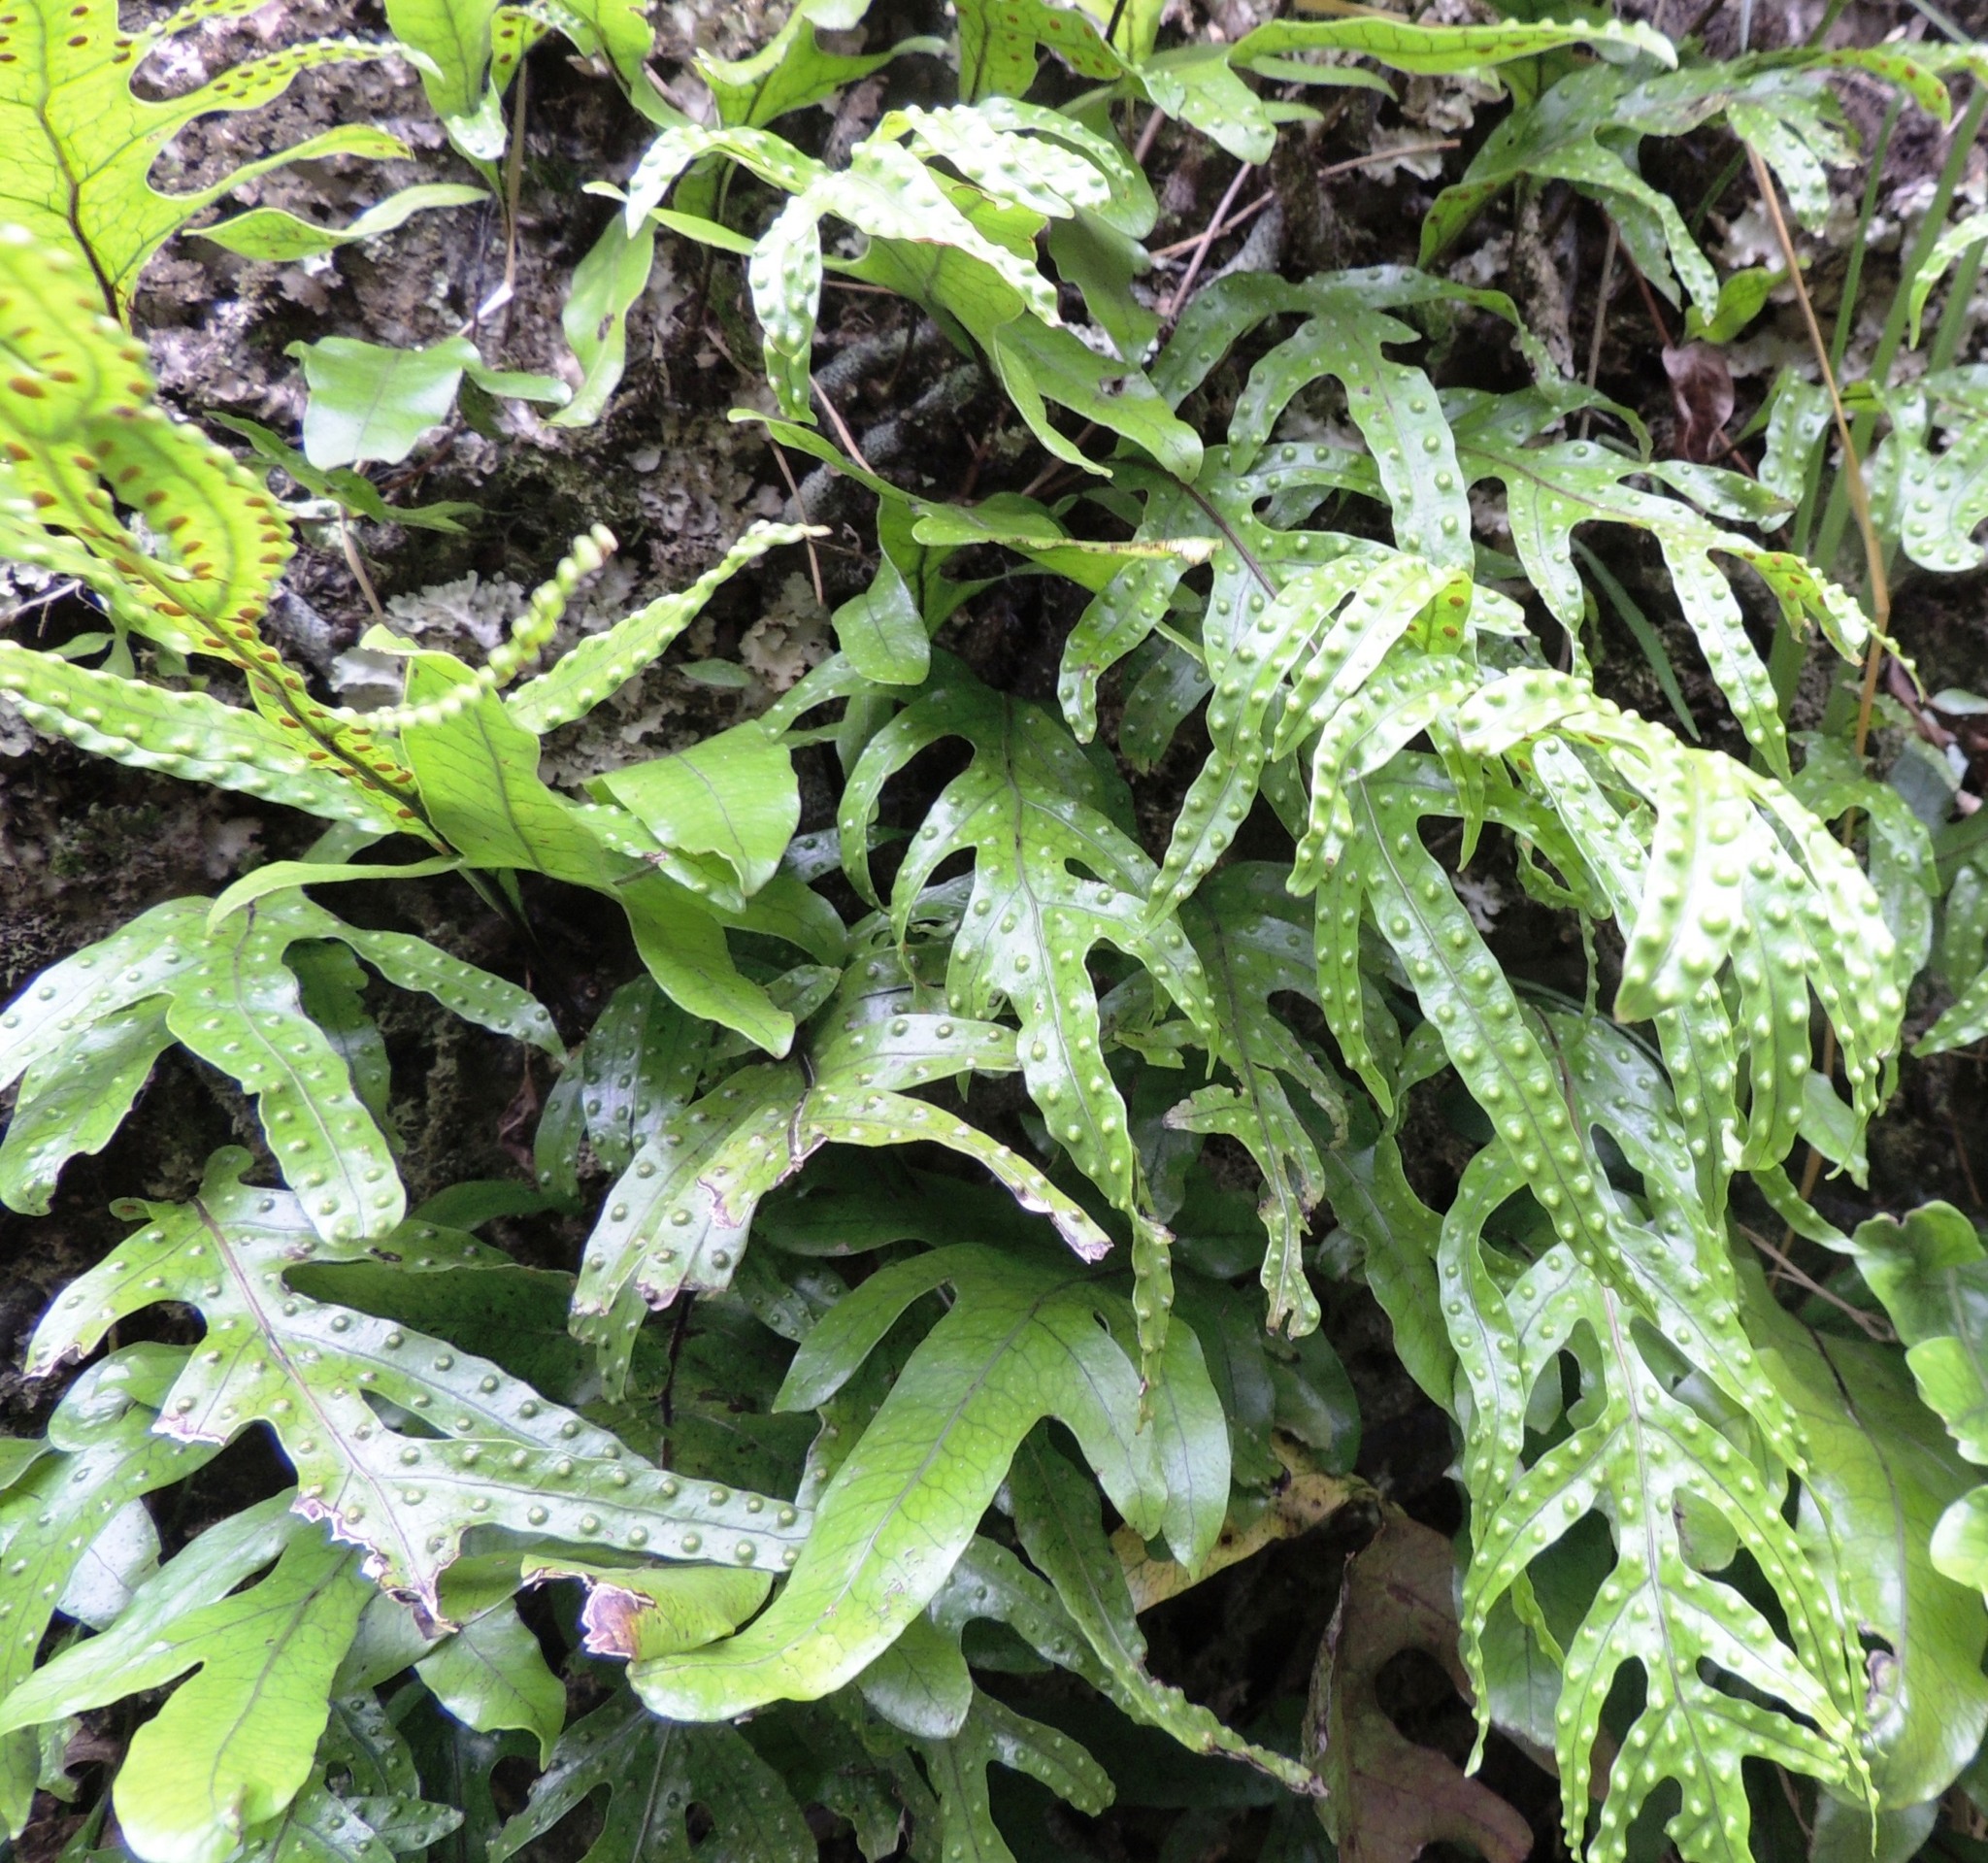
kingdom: Plantae
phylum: Tracheophyta
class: Polypodiopsida
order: Polypodiales
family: Polypodiaceae
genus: Lecanopteris
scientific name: Lecanopteris pustulata
